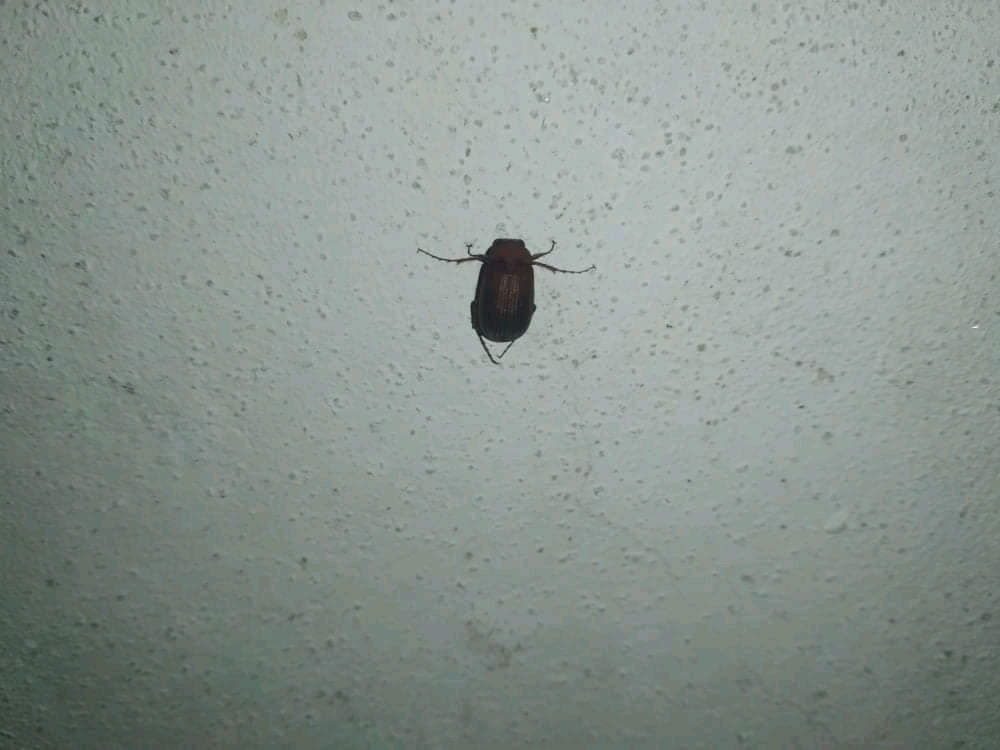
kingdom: Animalia
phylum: Arthropoda
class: Insecta
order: Coleoptera
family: Scarabaeidae
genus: Serica
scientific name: Serica brunnea
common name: Brown chafer
